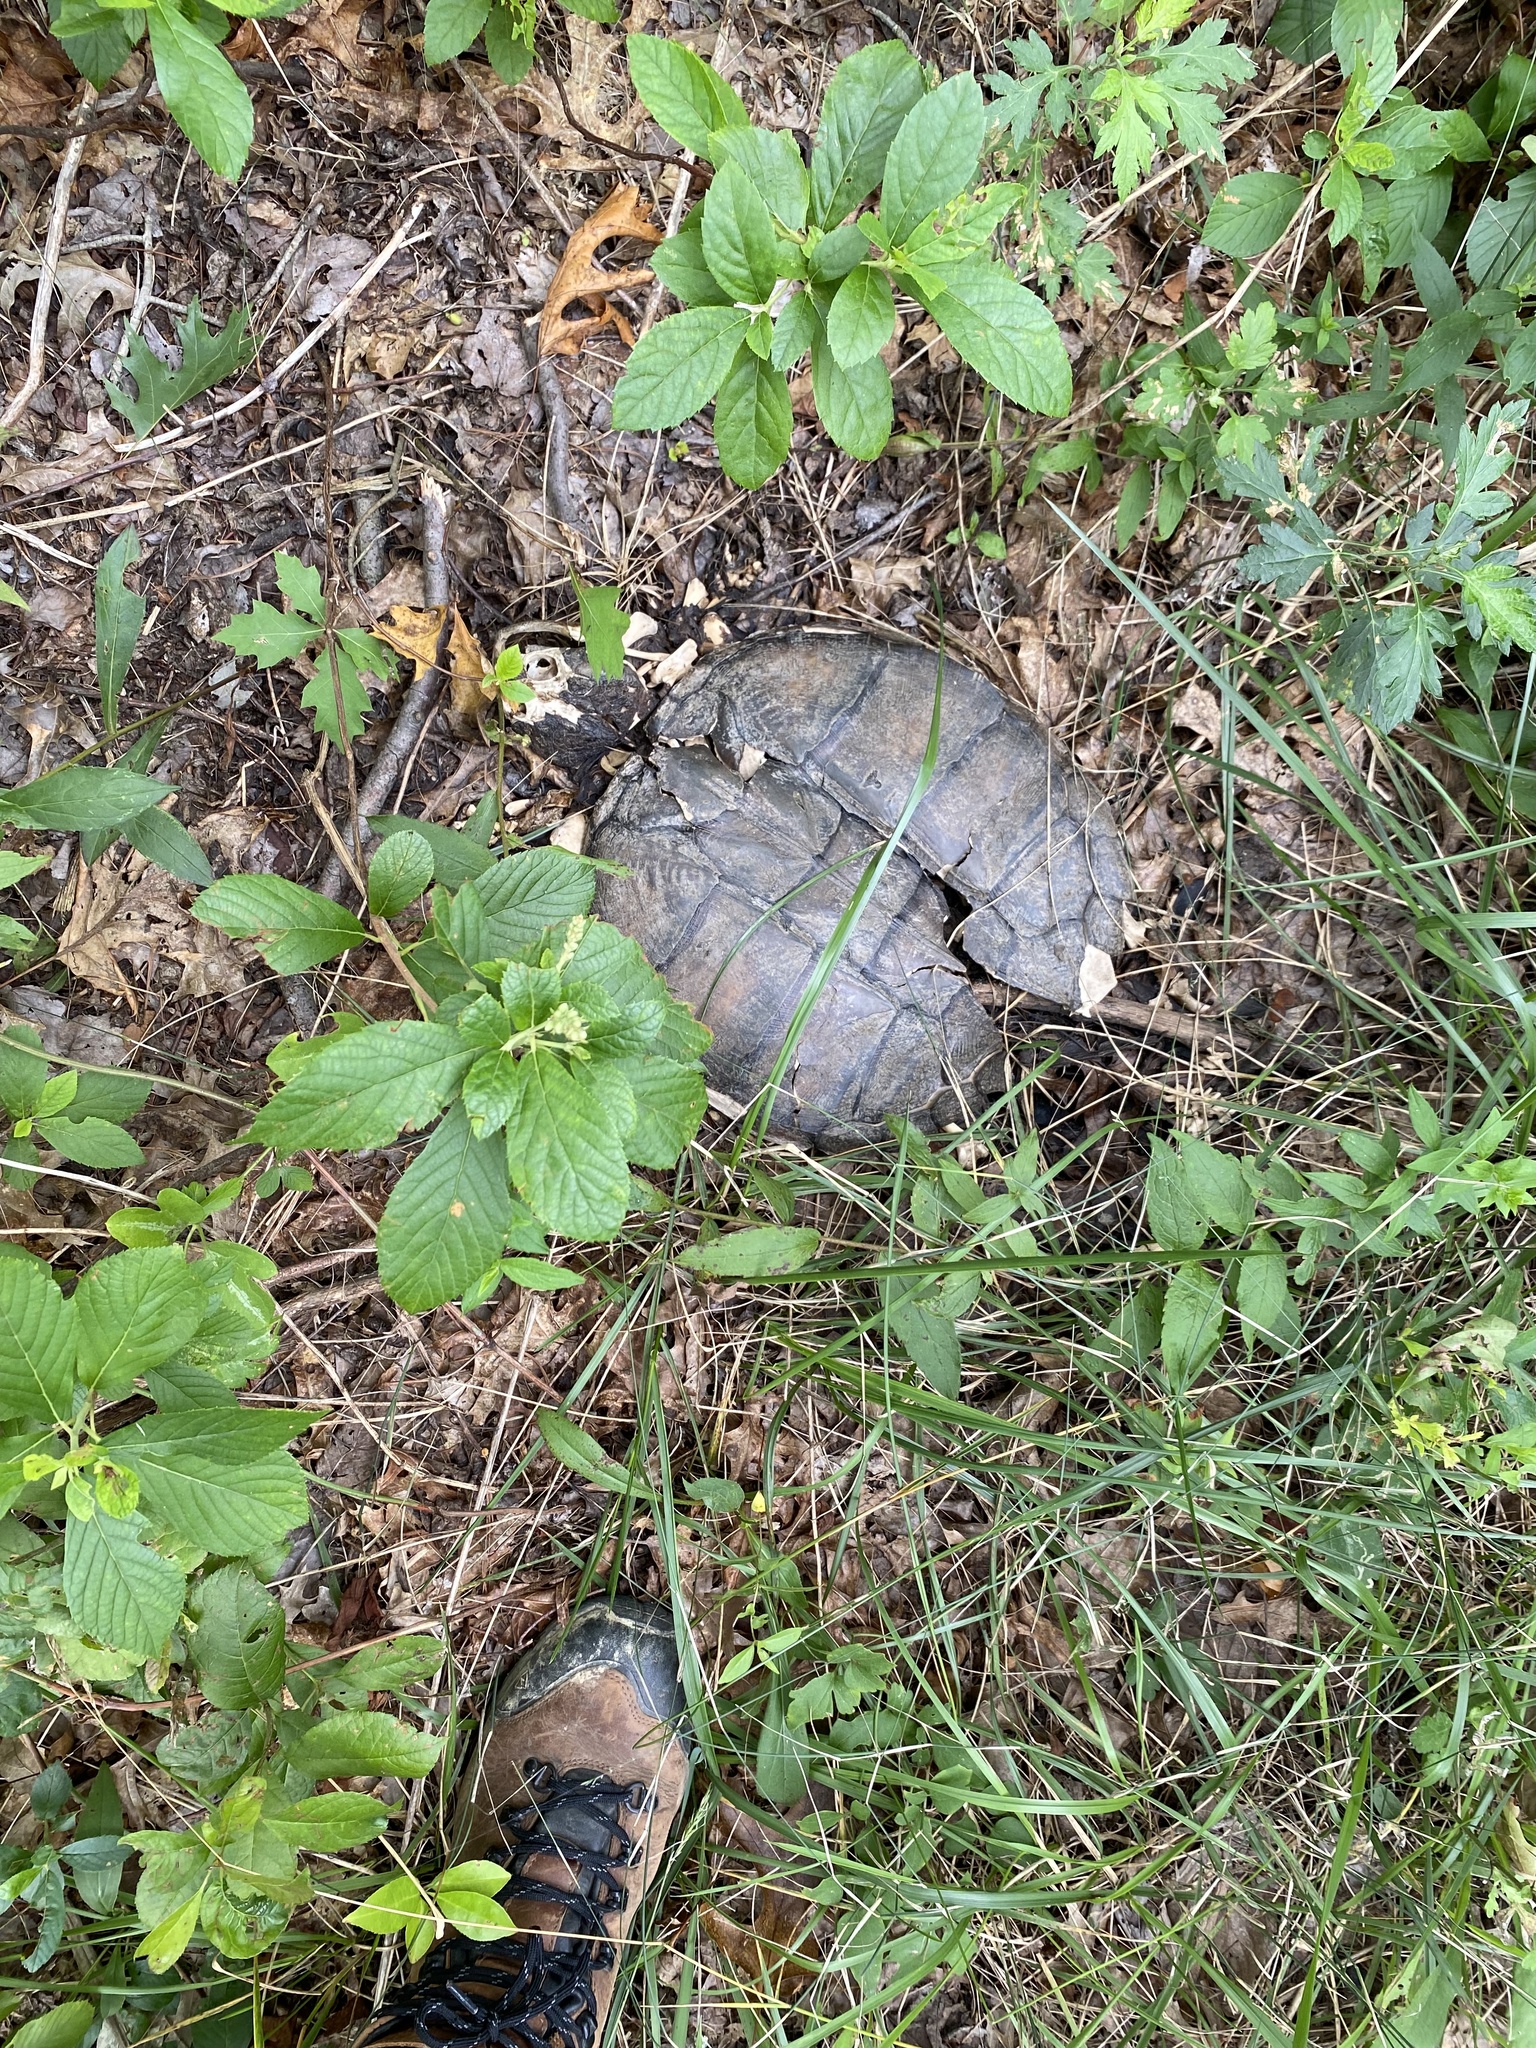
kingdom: Animalia
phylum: Chordata
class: Testudines
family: Chelydridae
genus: Chelydra
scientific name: Chelydra serpentina
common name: Common snapping turtle
